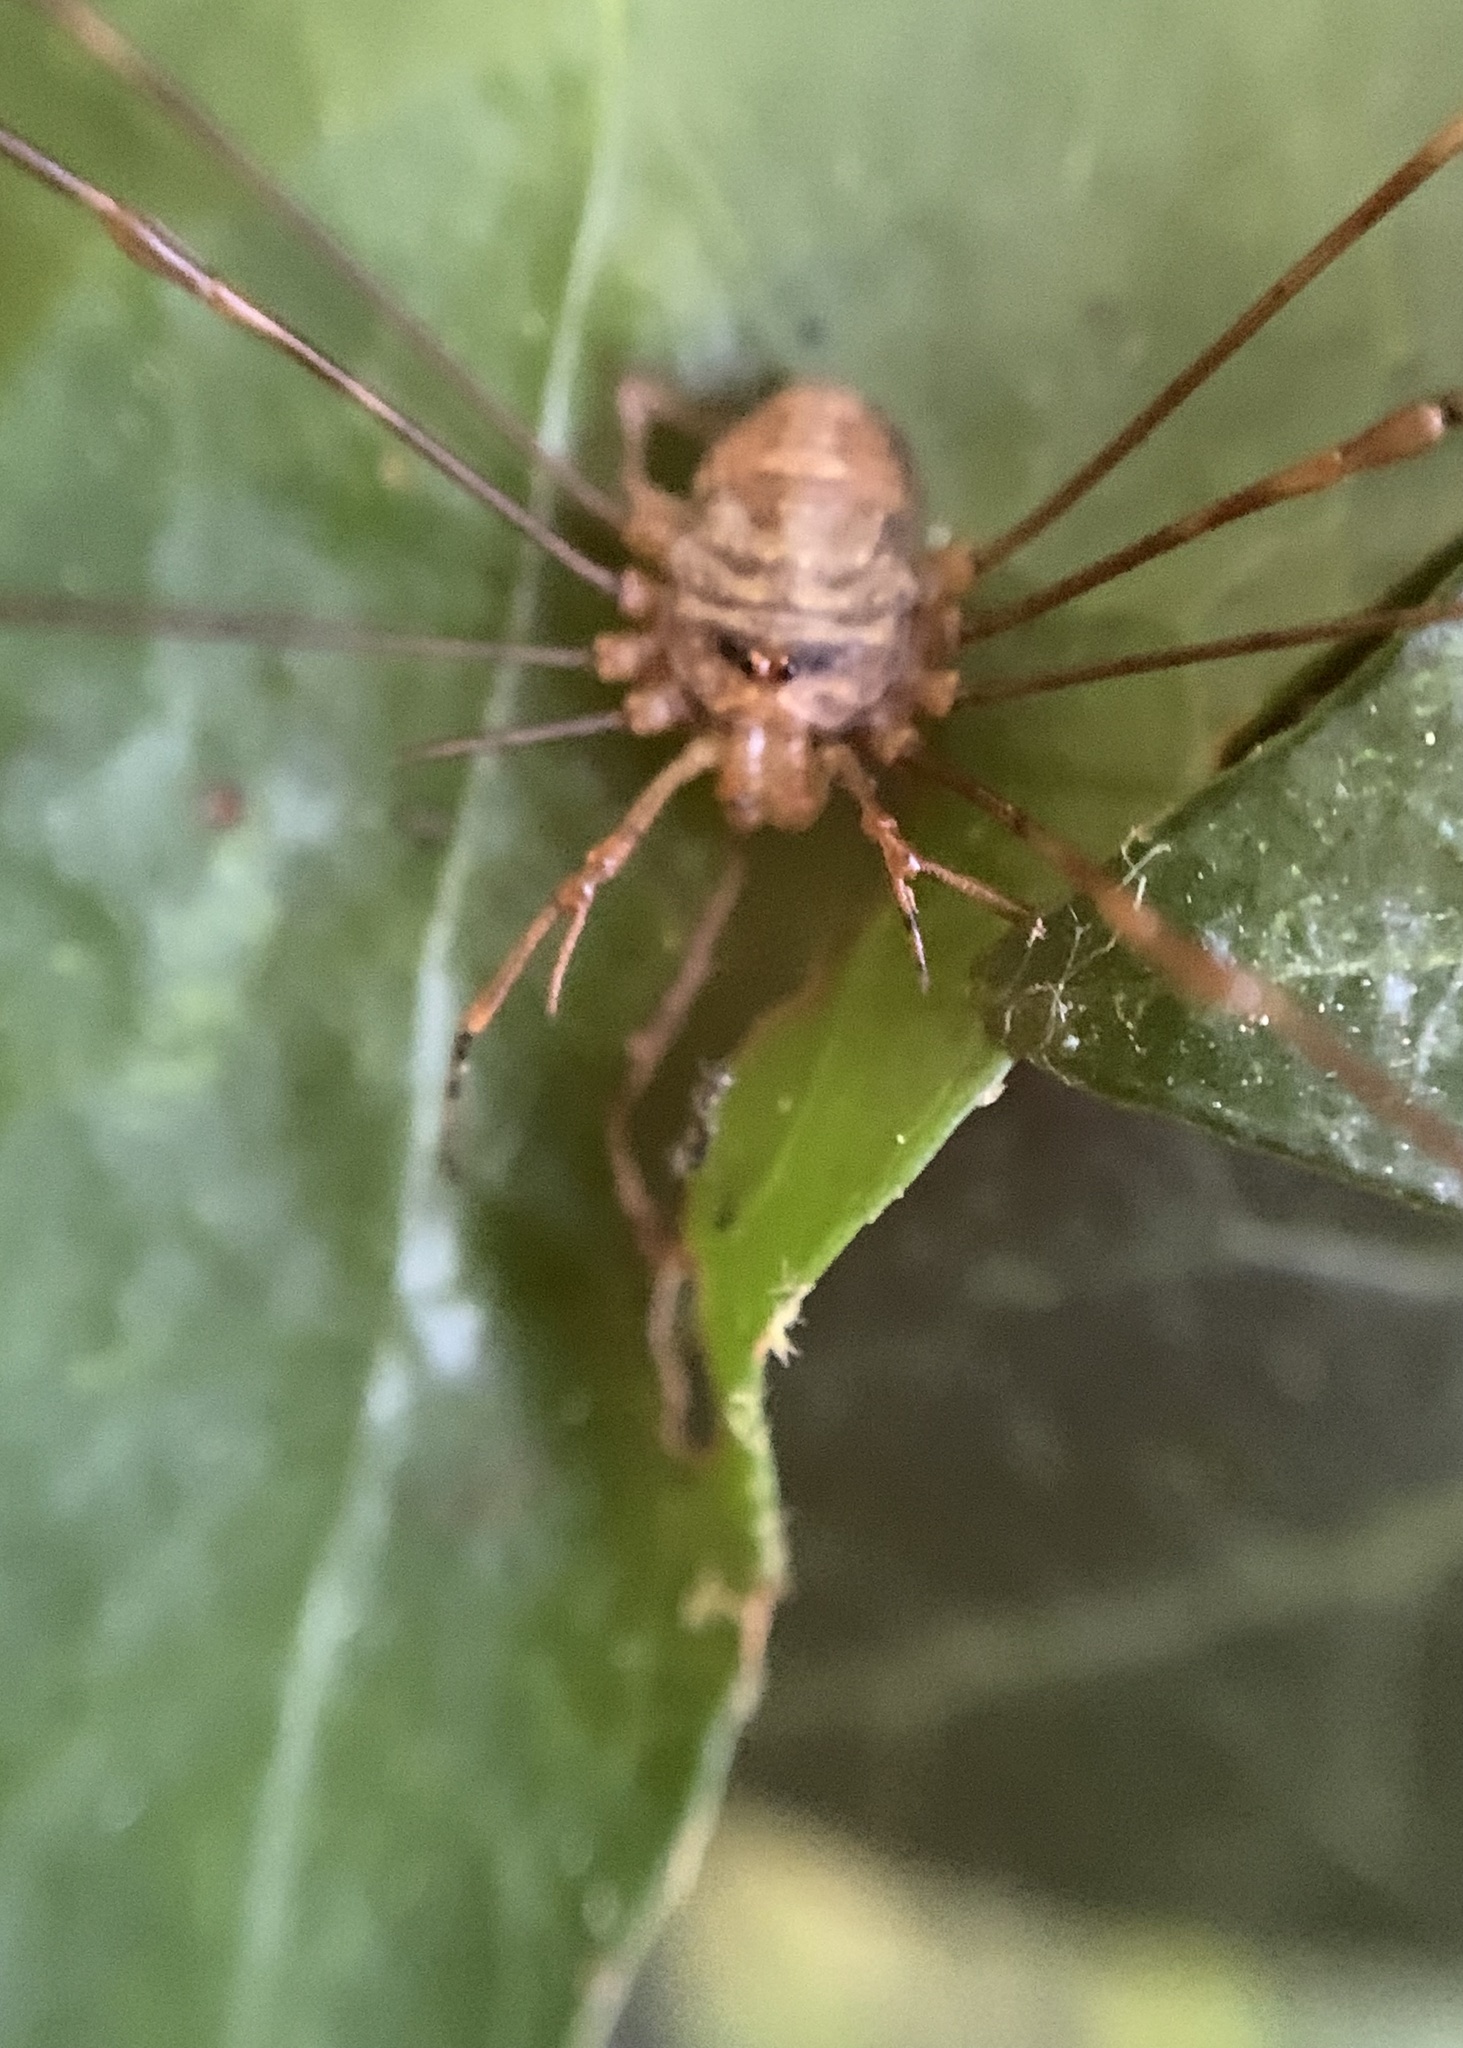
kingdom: Animalia
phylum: Arthropoda
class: Arachnida
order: Opiliones
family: Phalangiidae
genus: Dicranopalpus
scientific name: Dicranopalpus ramosus
